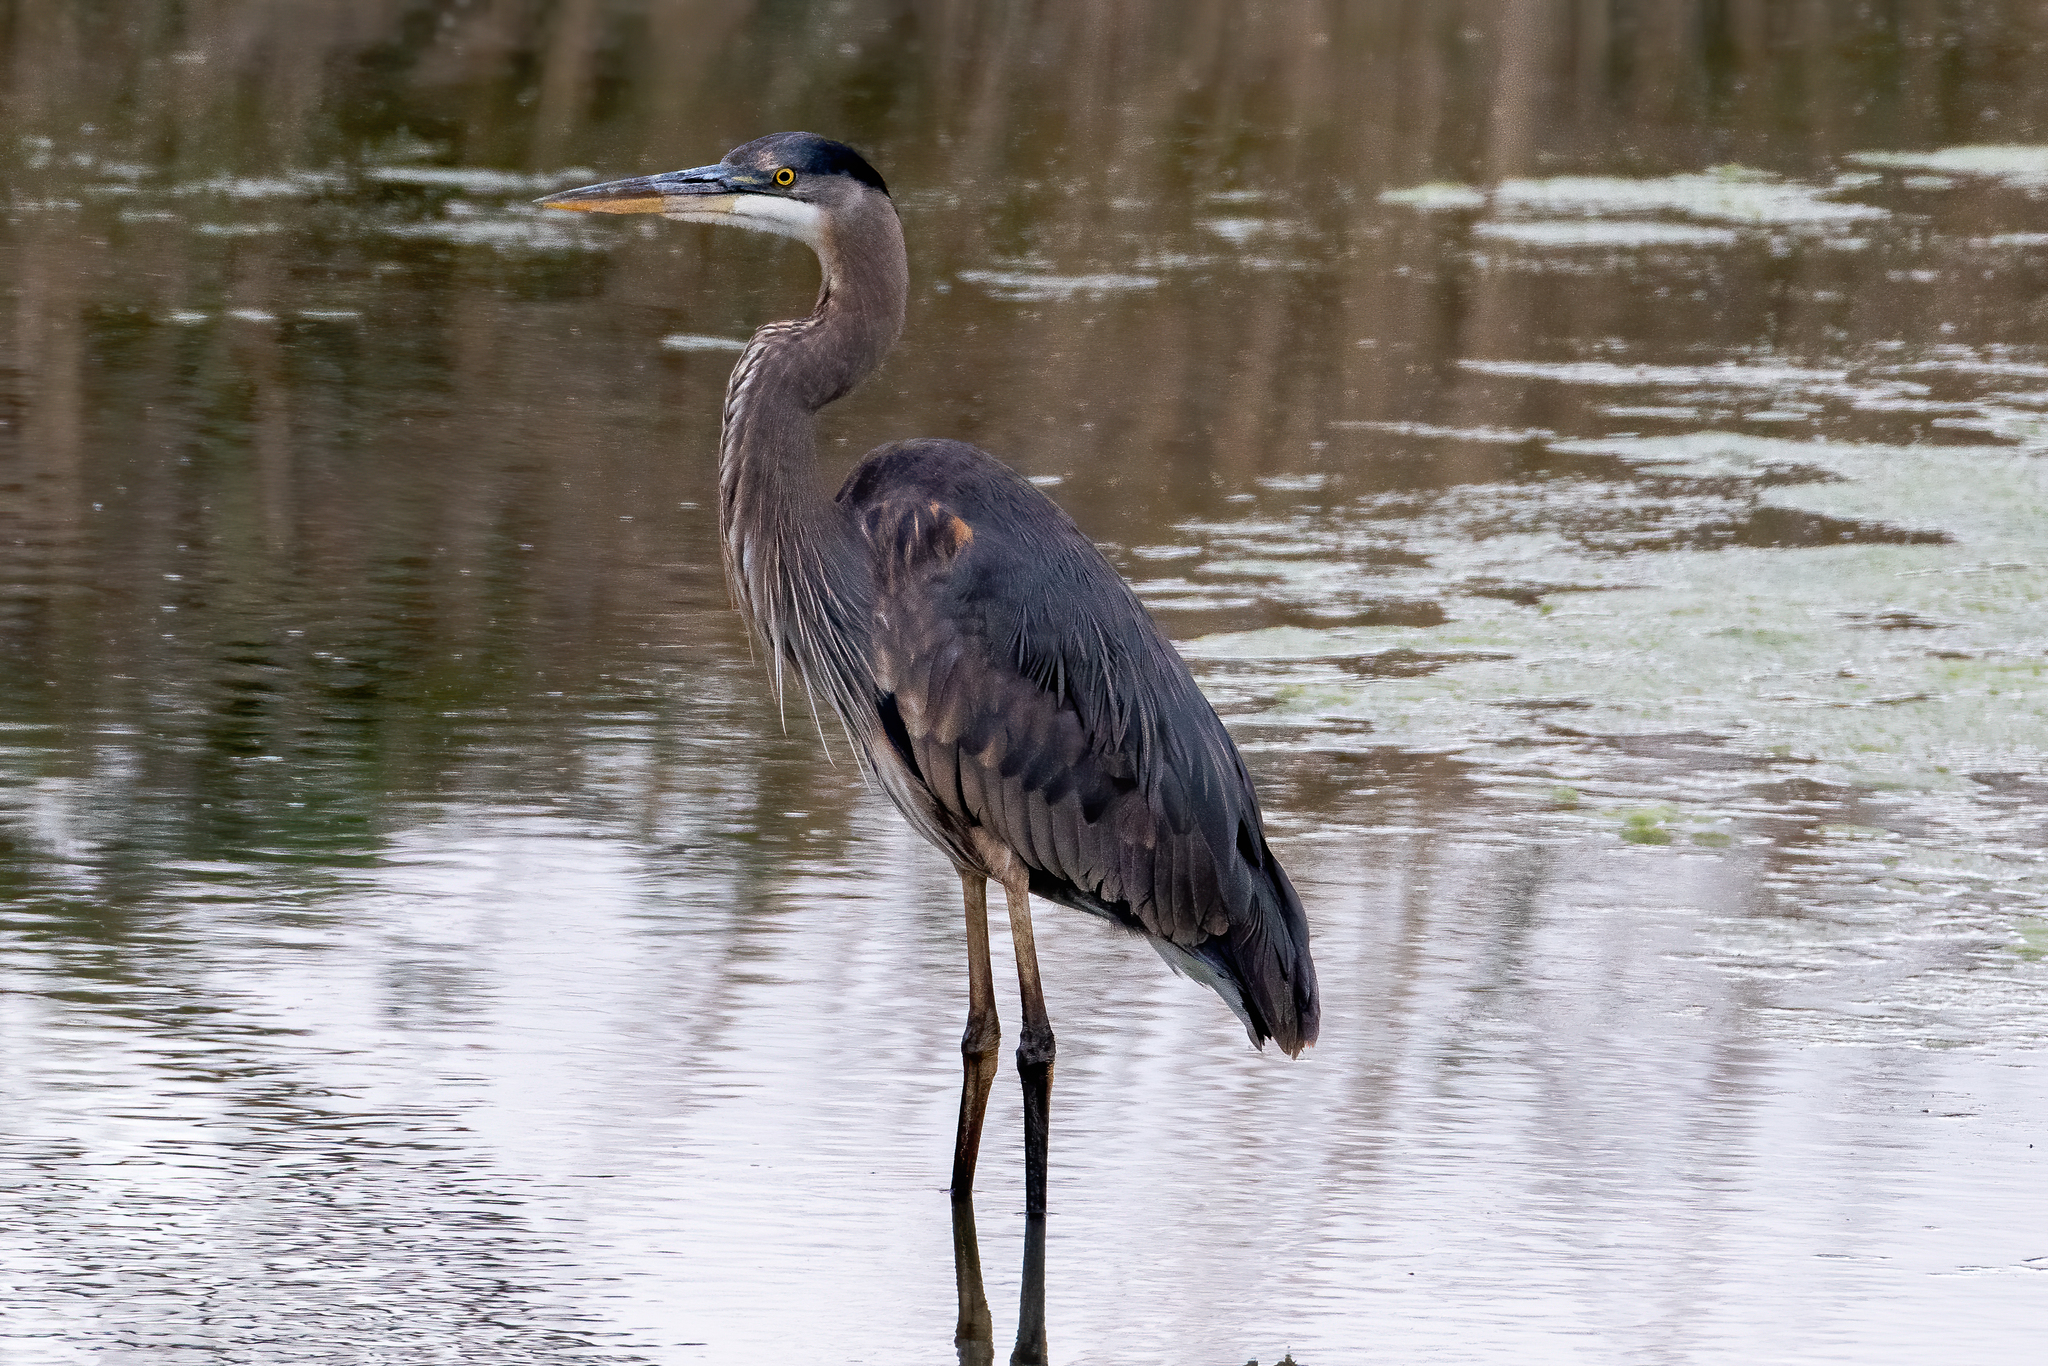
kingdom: Animalia
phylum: Chordata
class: Aves
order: Pelecaniformes
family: Ardeidae
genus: Ardea
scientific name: Ardea herodias
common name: Great blue heron
